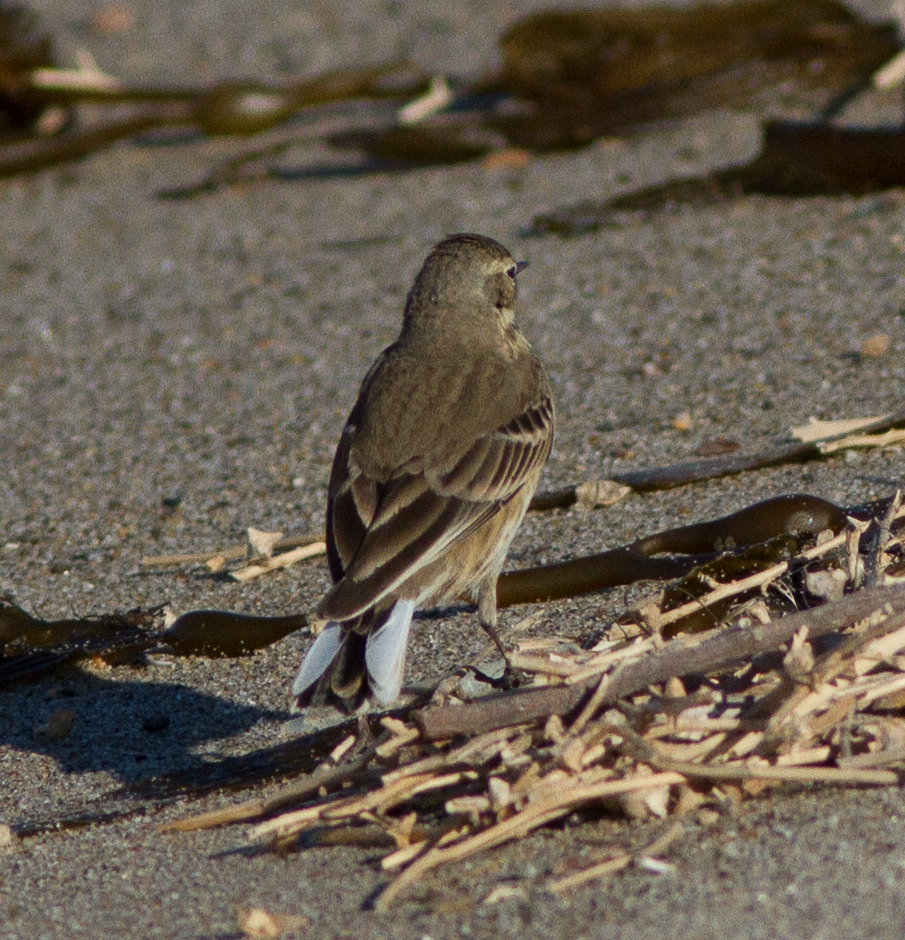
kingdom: Animalia
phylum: Chordata
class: Aves
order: Passeriformes
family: Motacillidae
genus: Anthus
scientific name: Anthus rubescens
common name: Buff-bellied pipit
